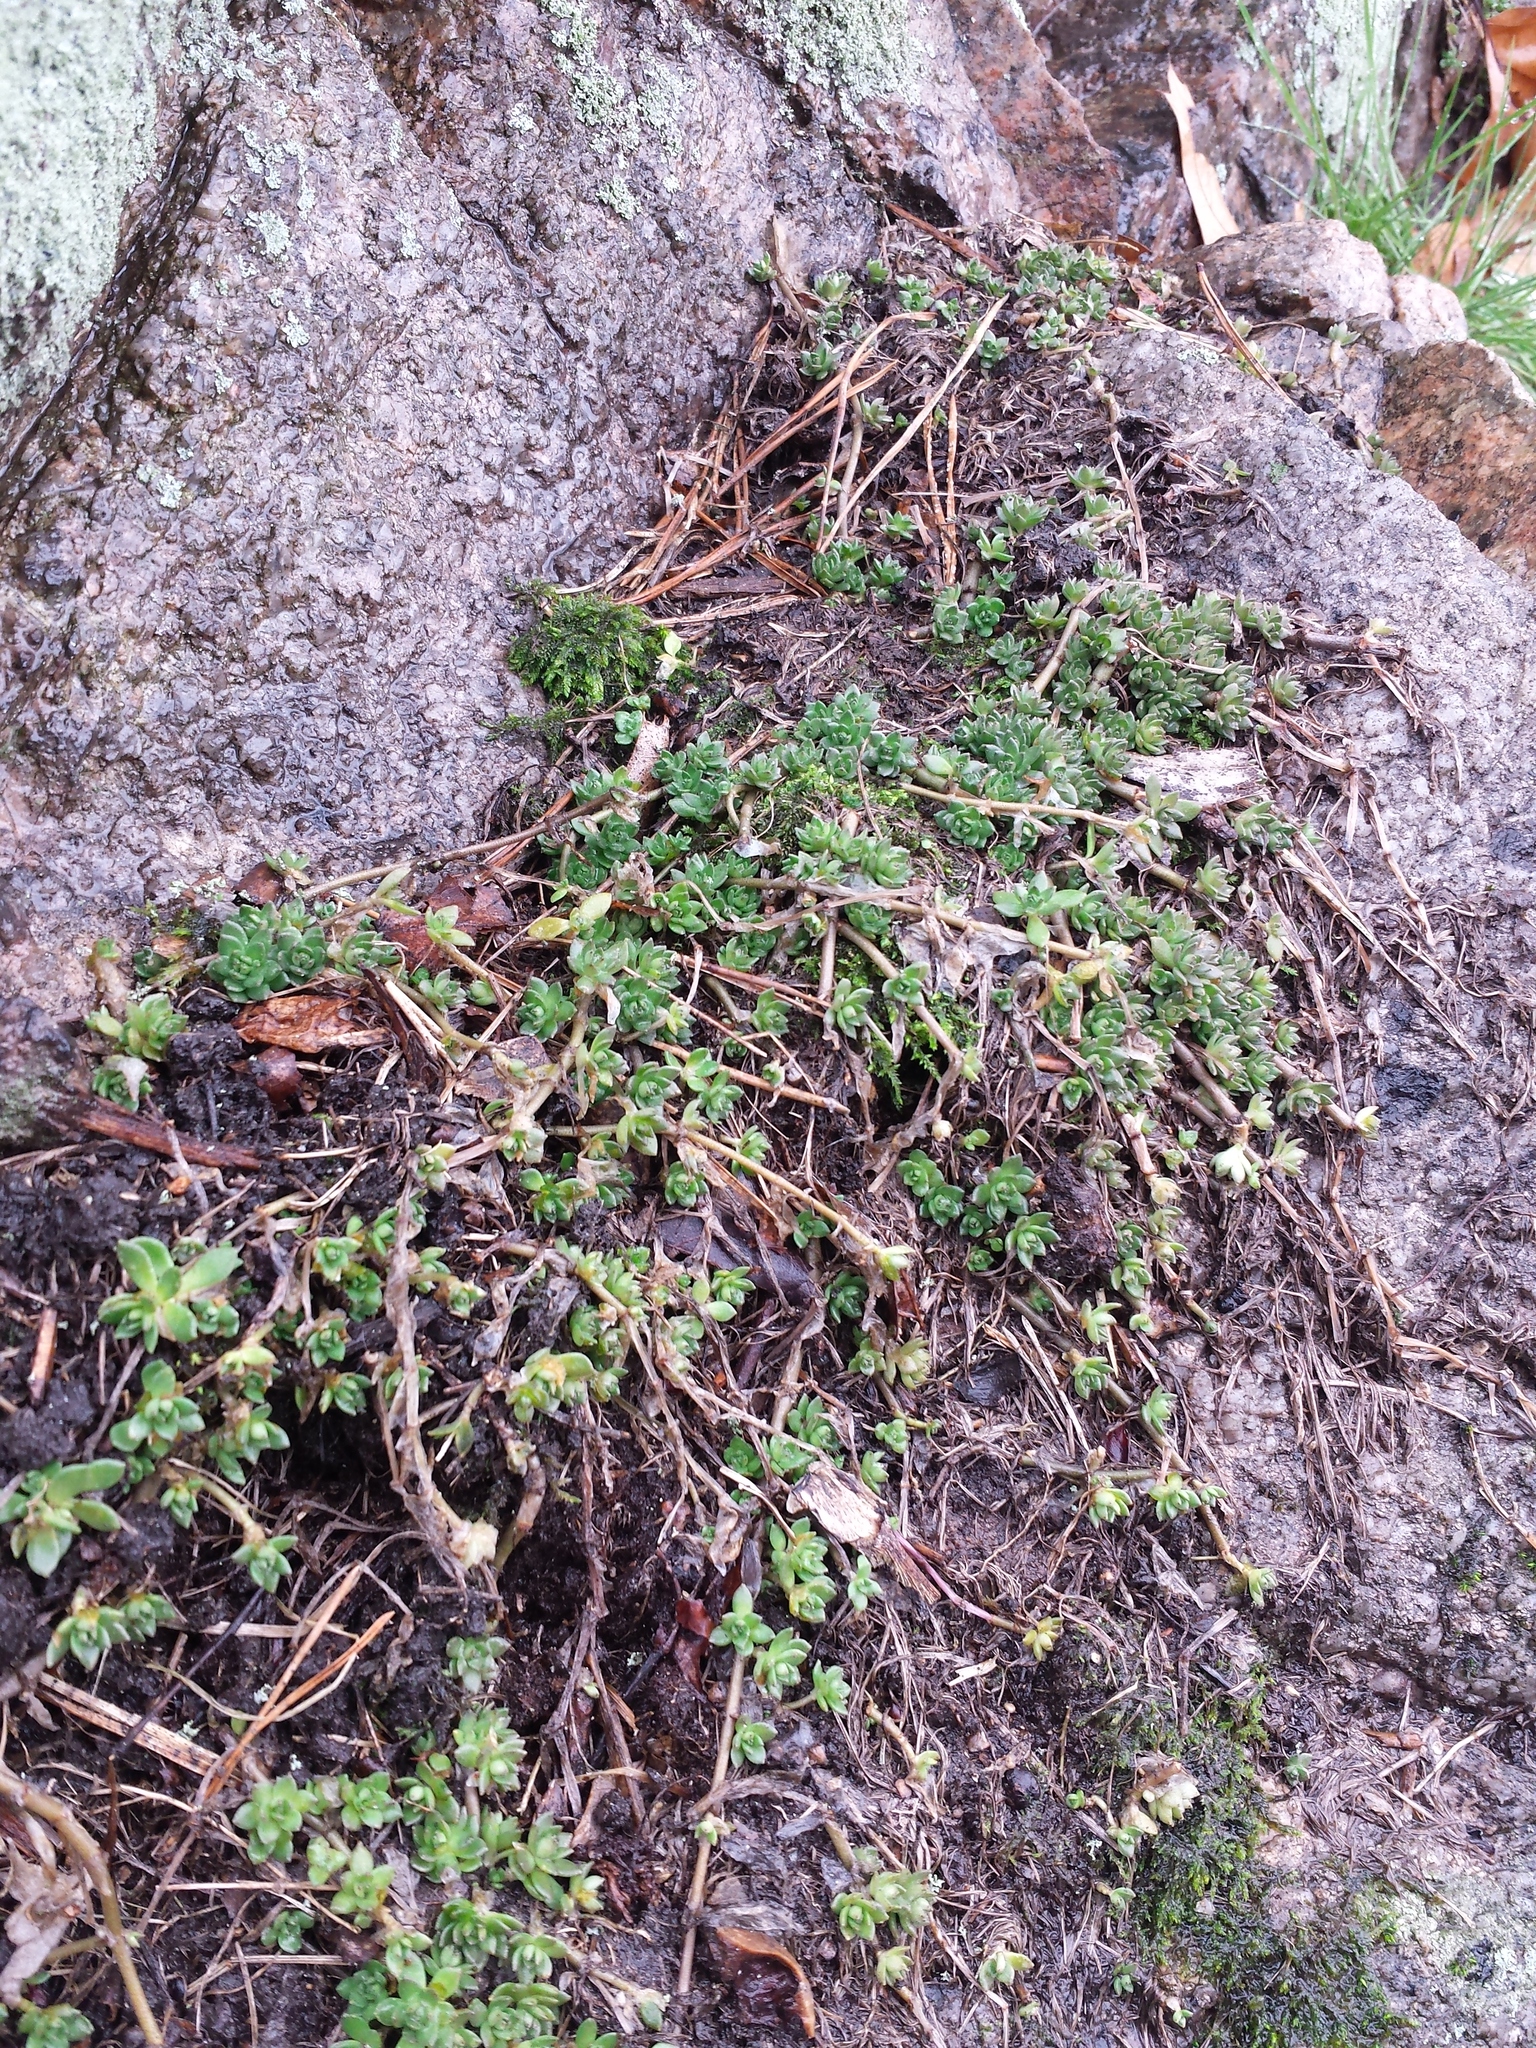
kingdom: Plantae
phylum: Tracheophyta
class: Magnoliopsida
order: Saxifragales
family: Crassulaceae
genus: Sedum
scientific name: Sedum sarmentosum
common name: Stringy stonecrop
